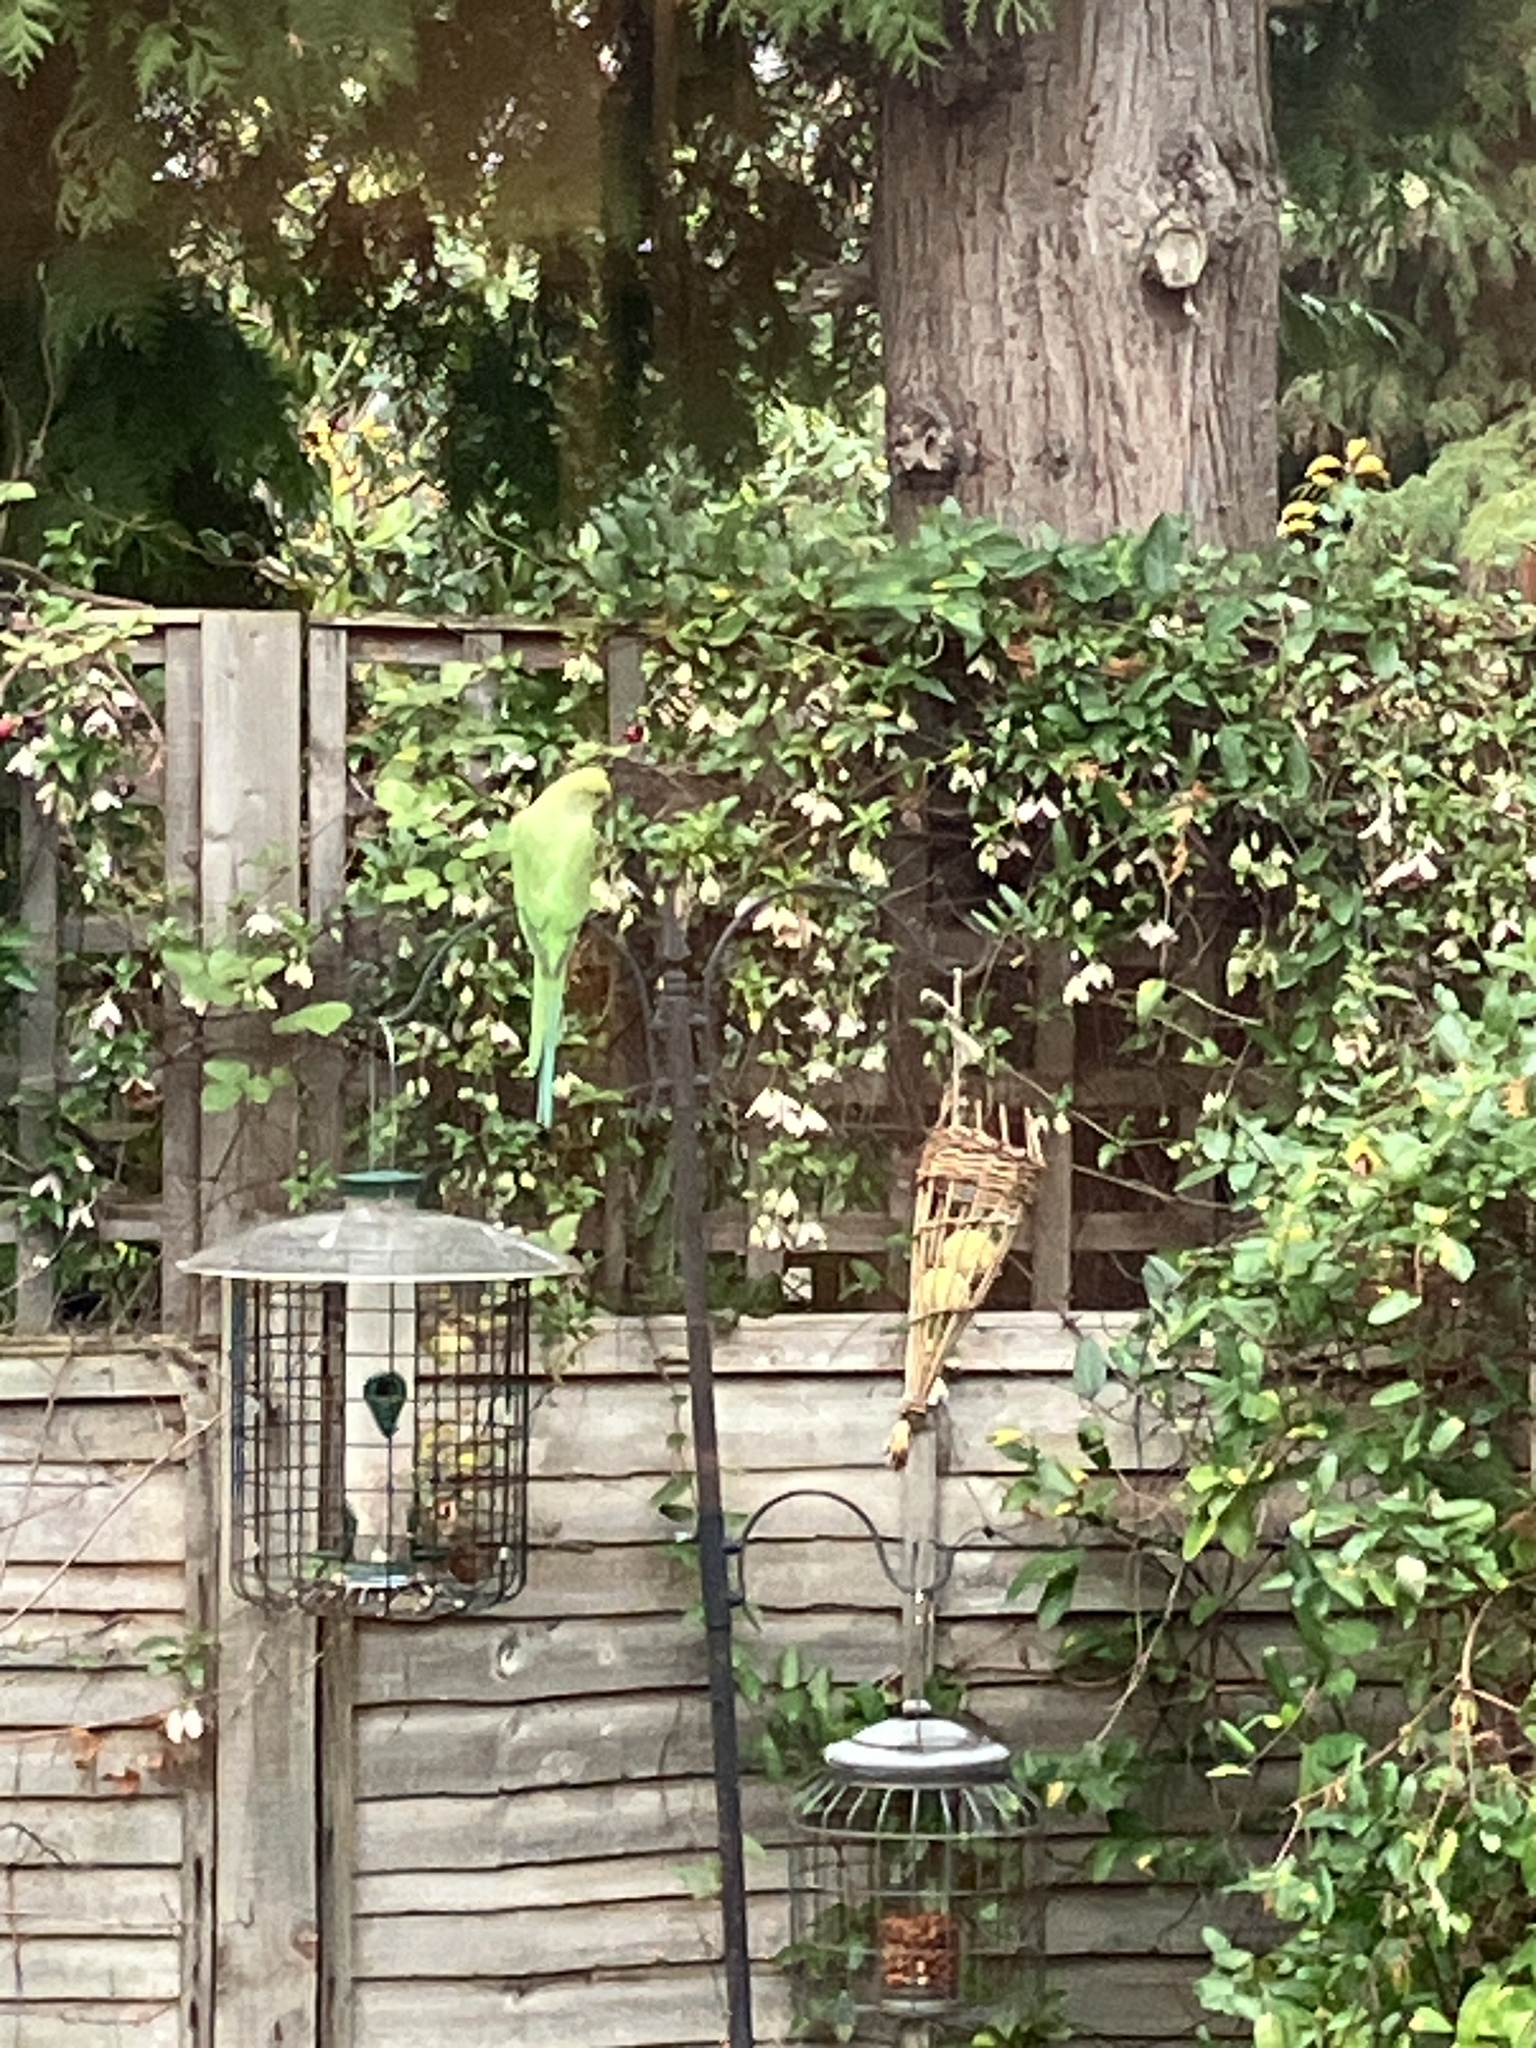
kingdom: Animalia
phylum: Chordata
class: Aves
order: Psittaciformes
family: Psittacidae
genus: Psittacula
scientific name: Psittacula krameri
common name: Rose-ringed parakeet
